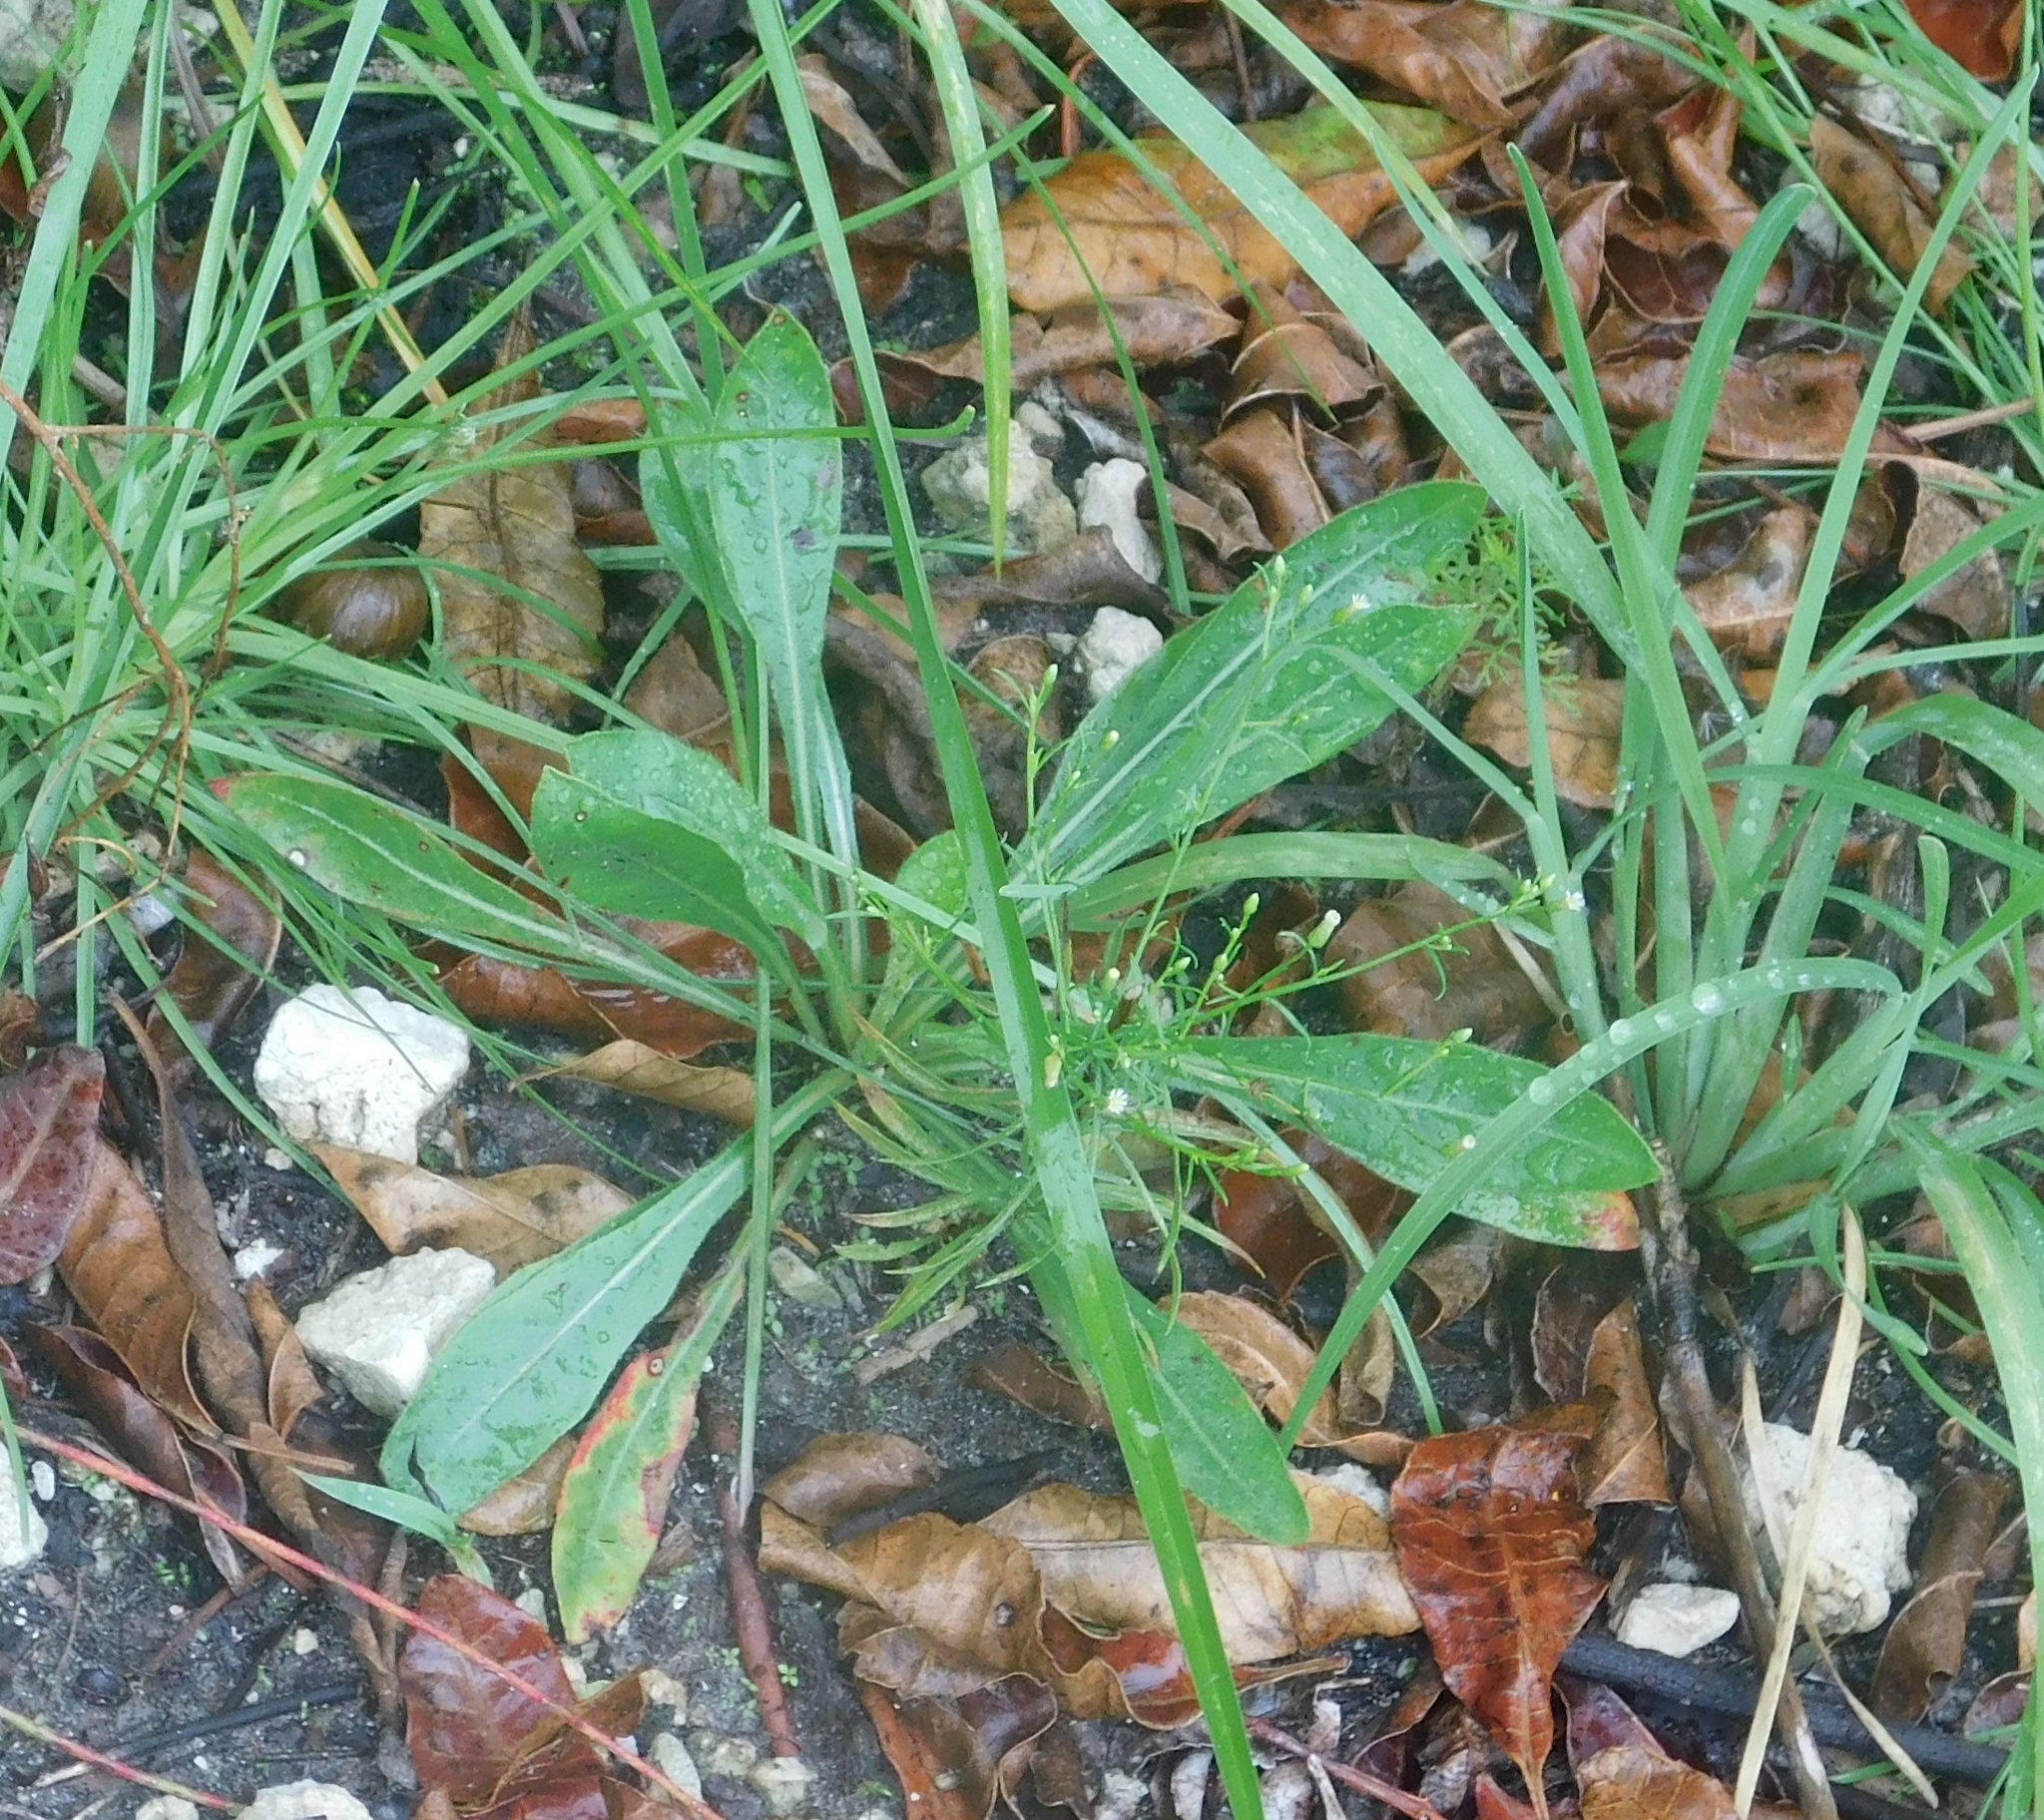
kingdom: Plantae
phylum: Tracheophyta
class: Magnoliopsida
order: Asterales
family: Asteraceae
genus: Erigeron
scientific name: Erigeron canadensis
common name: Canadian fleabane
